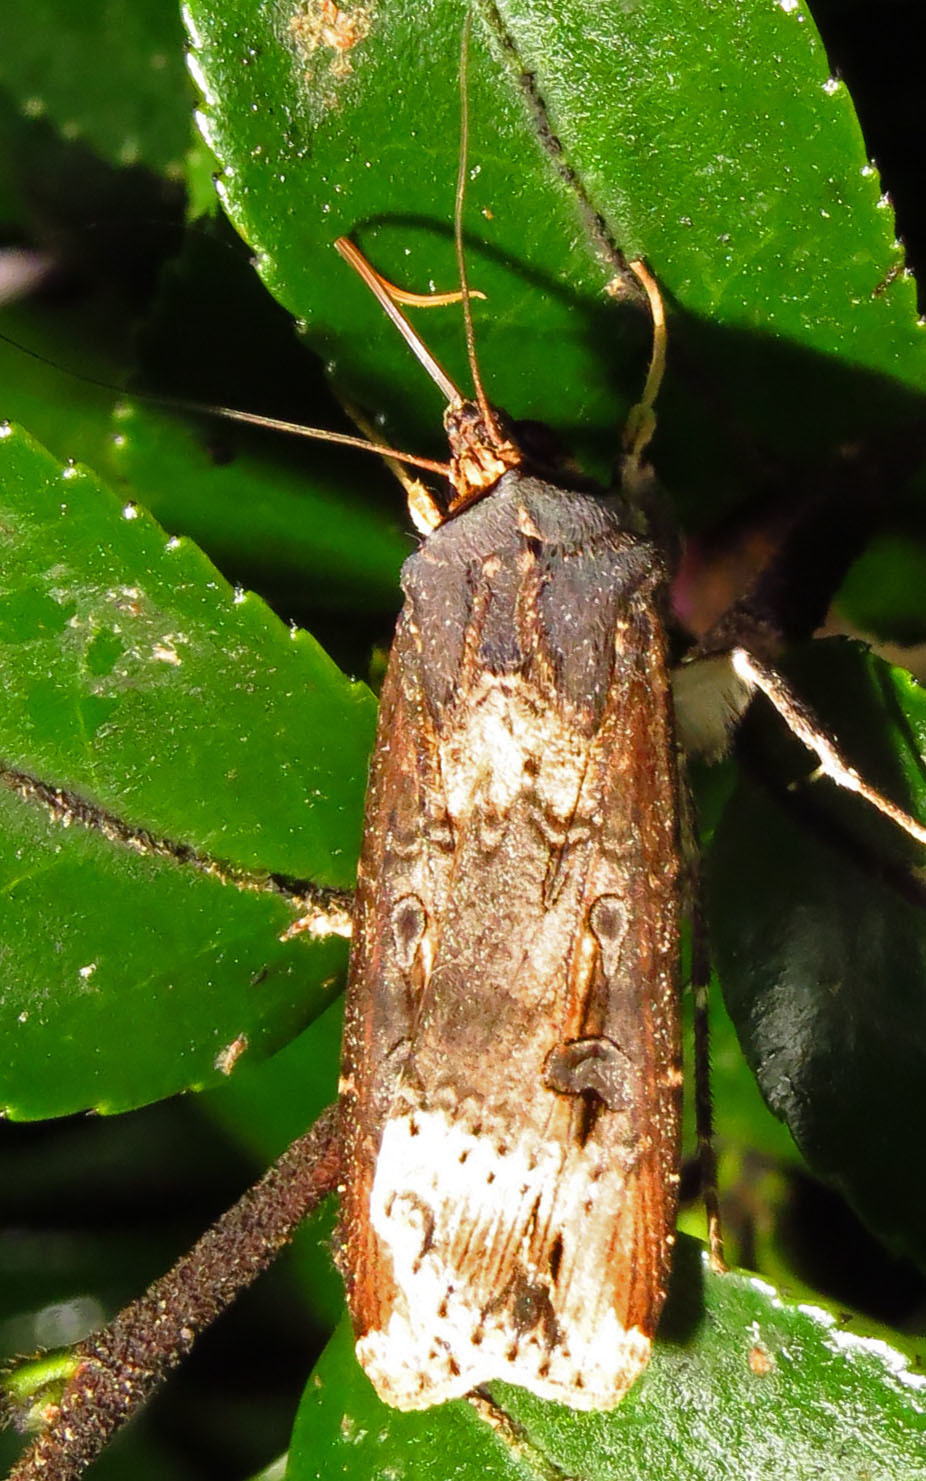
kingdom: Animalia
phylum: Arthropoda
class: Insecta
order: Lepidoptera
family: Noctuidae
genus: Agrotis
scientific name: Agrotis ipsilon
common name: Dark sword-grass
